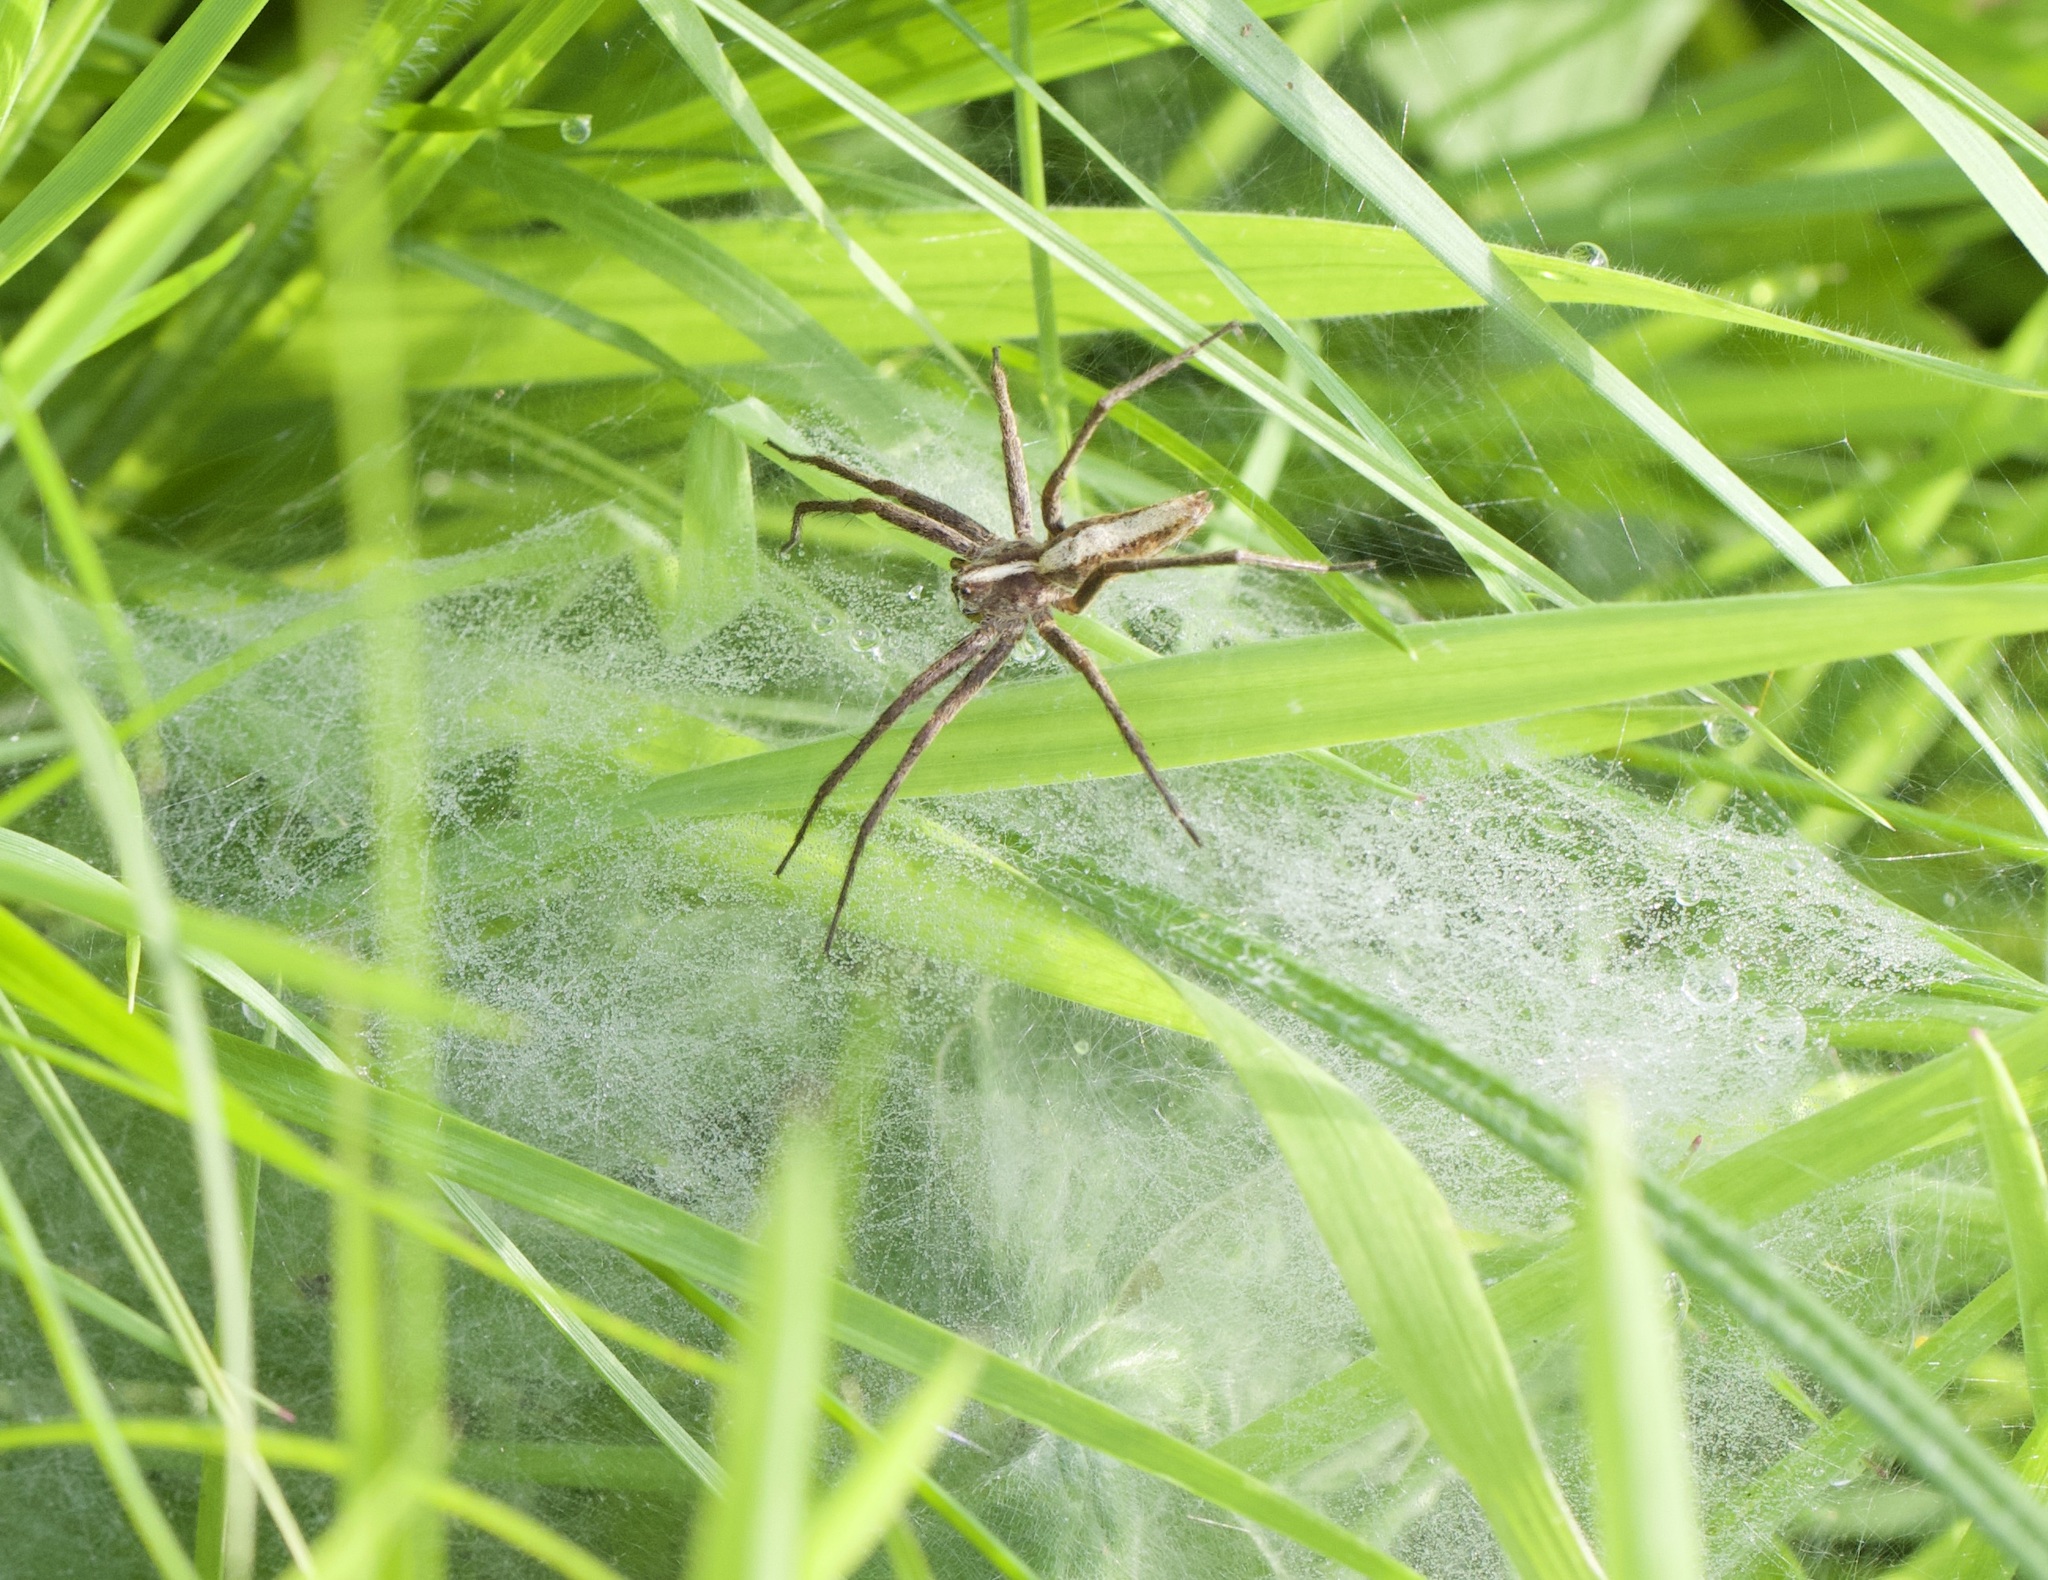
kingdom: Animalia
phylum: Arthropoda
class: Arachnida
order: Araneae
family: Pisauridae
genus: Pisaura
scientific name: Pisaura mirabilis
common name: Tent spider
